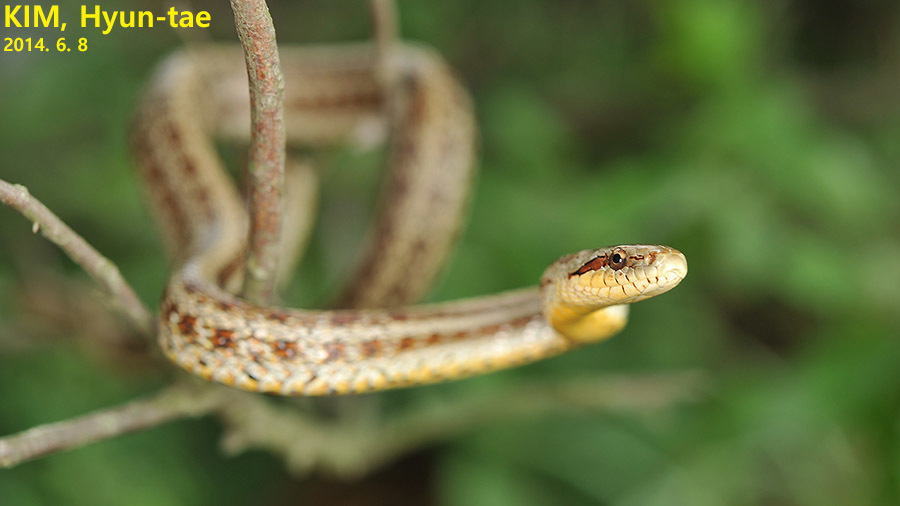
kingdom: Animalia
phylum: Chordata
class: Squamata
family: Colubridae
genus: Elaphe
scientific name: Elaphe dione
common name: Dione ratsnake
